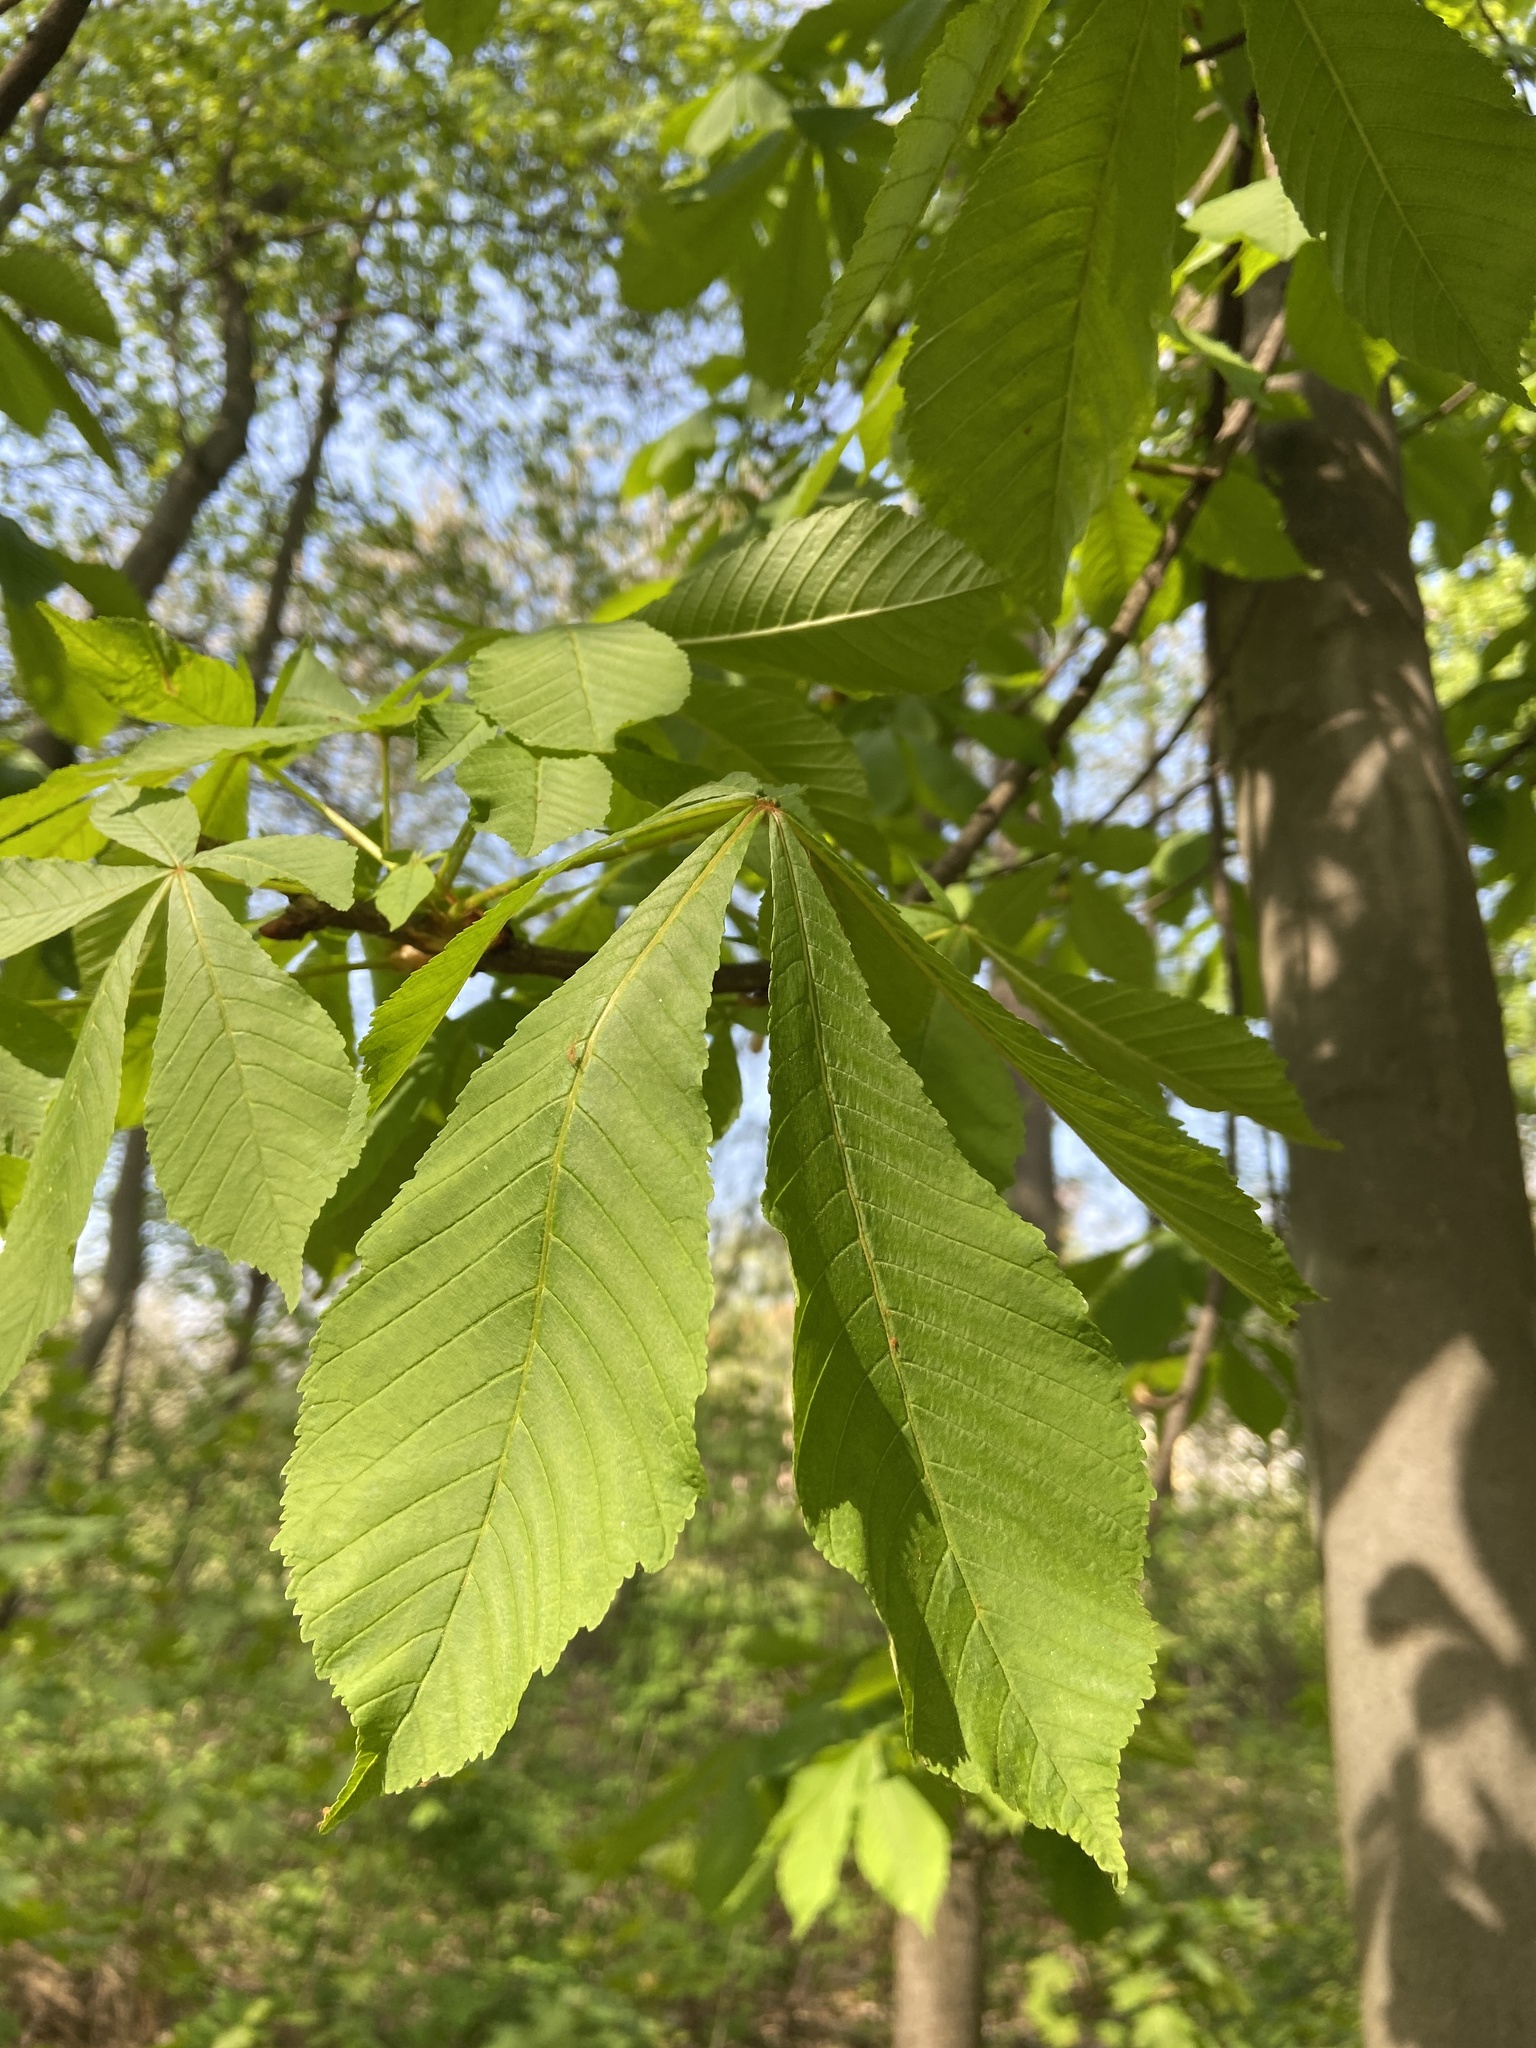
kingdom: Plantae
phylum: Tracheophyta
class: Magnoliopsida
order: Sapindales
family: Sapindaceae
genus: Aesculus
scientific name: Aesculus hippocastanum
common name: Horse-chestnut
